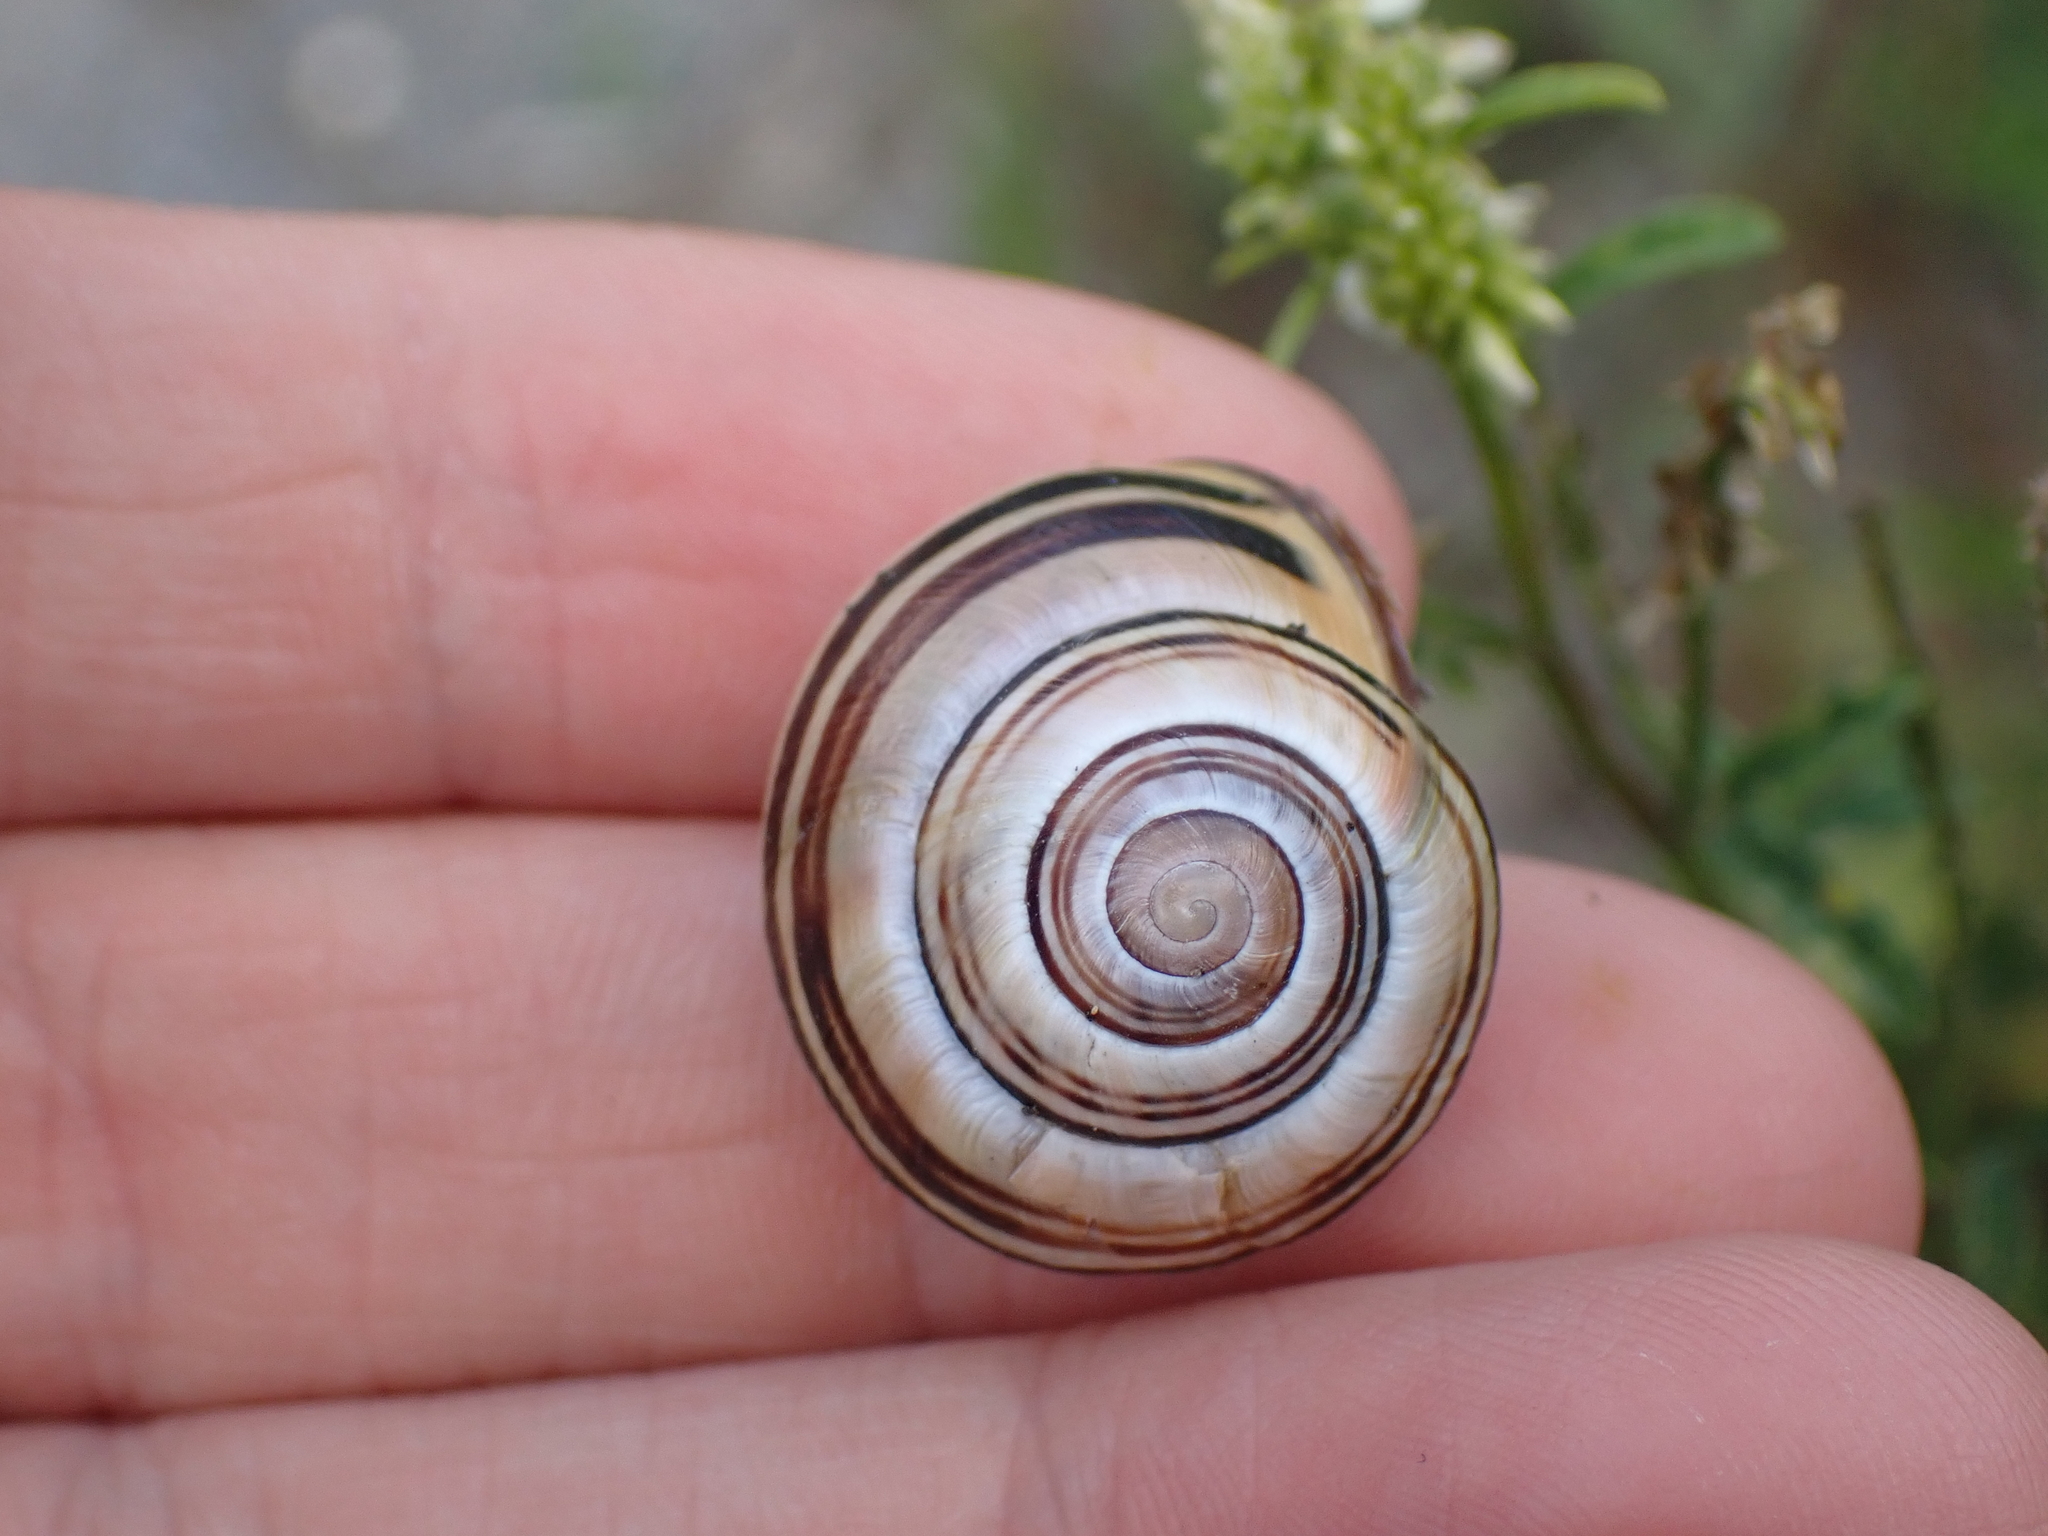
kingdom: Animalia
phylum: Mollusca
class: Gastropoda
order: Stylommatophora
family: Helicidae
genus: Cepaea
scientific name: Cepaea nemoralis
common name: Grovesnail
